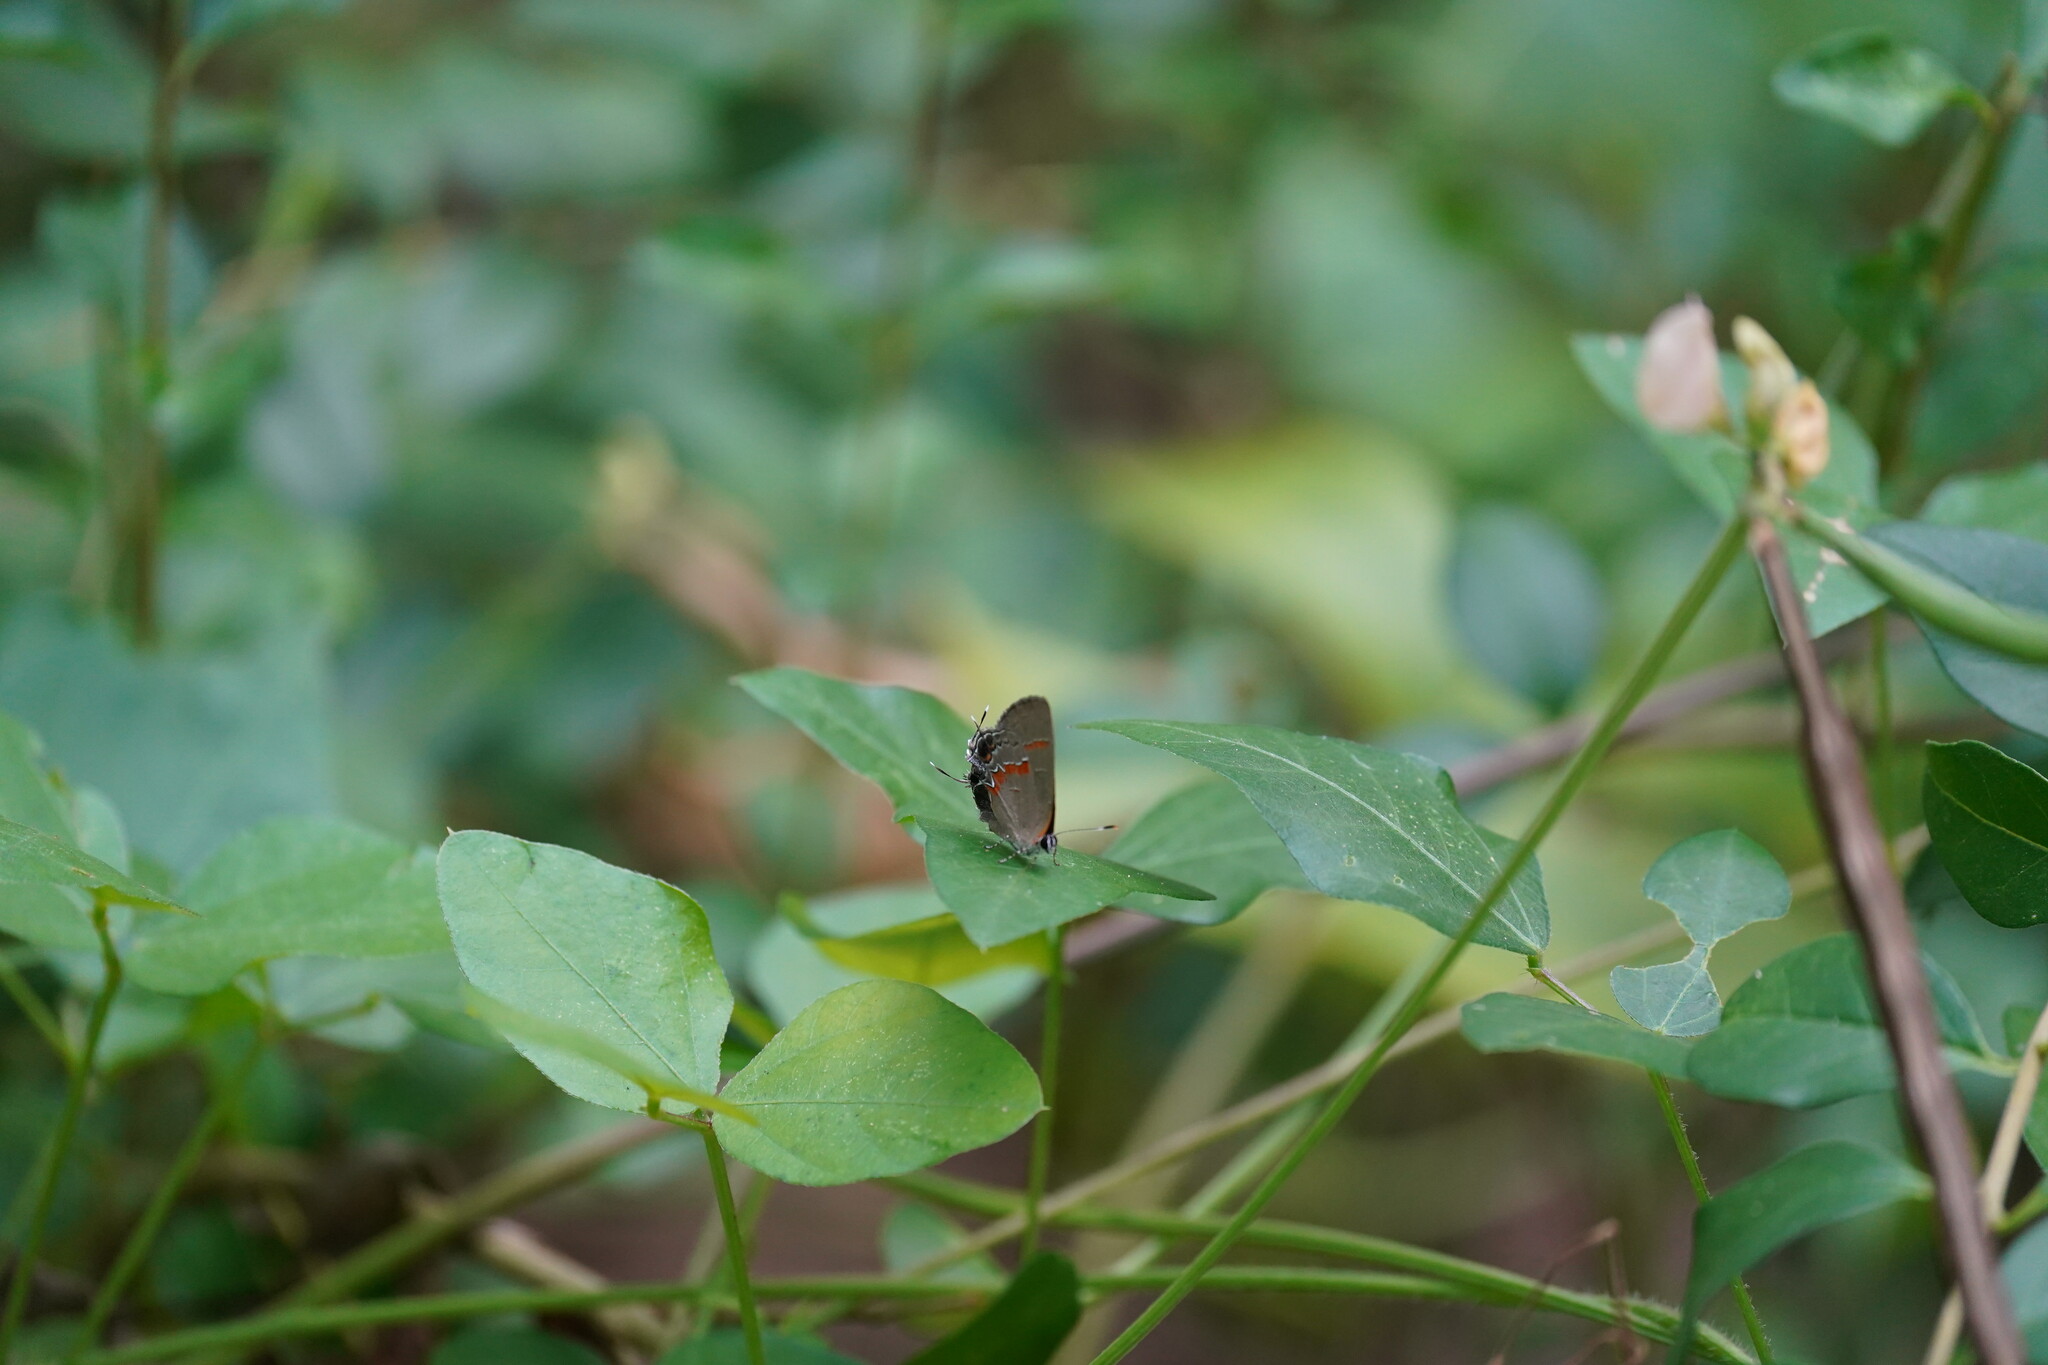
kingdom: Animalia
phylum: Arthropoda
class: Insecta
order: Lepidoptera
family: Lycaenidae
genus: Calycopis
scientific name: Calycopis cecrops
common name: Red-banded hairstreak
